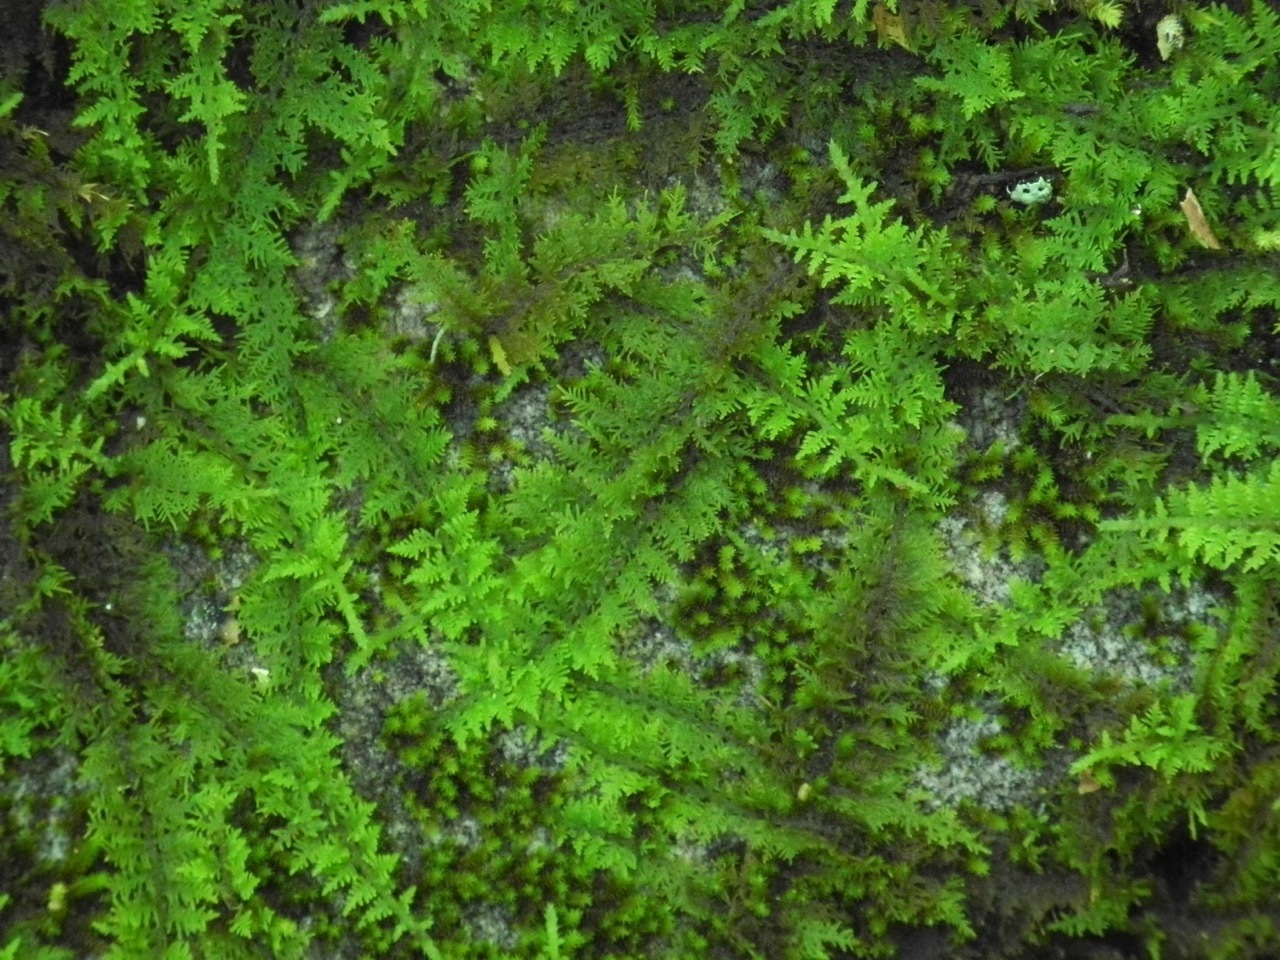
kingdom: Plantae
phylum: Bryophyta
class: Bryopsida
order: Hypnales
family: Thuidiaceae
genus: Thuidium
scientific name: Thuidium delicatulum
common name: Delicate fern moss
